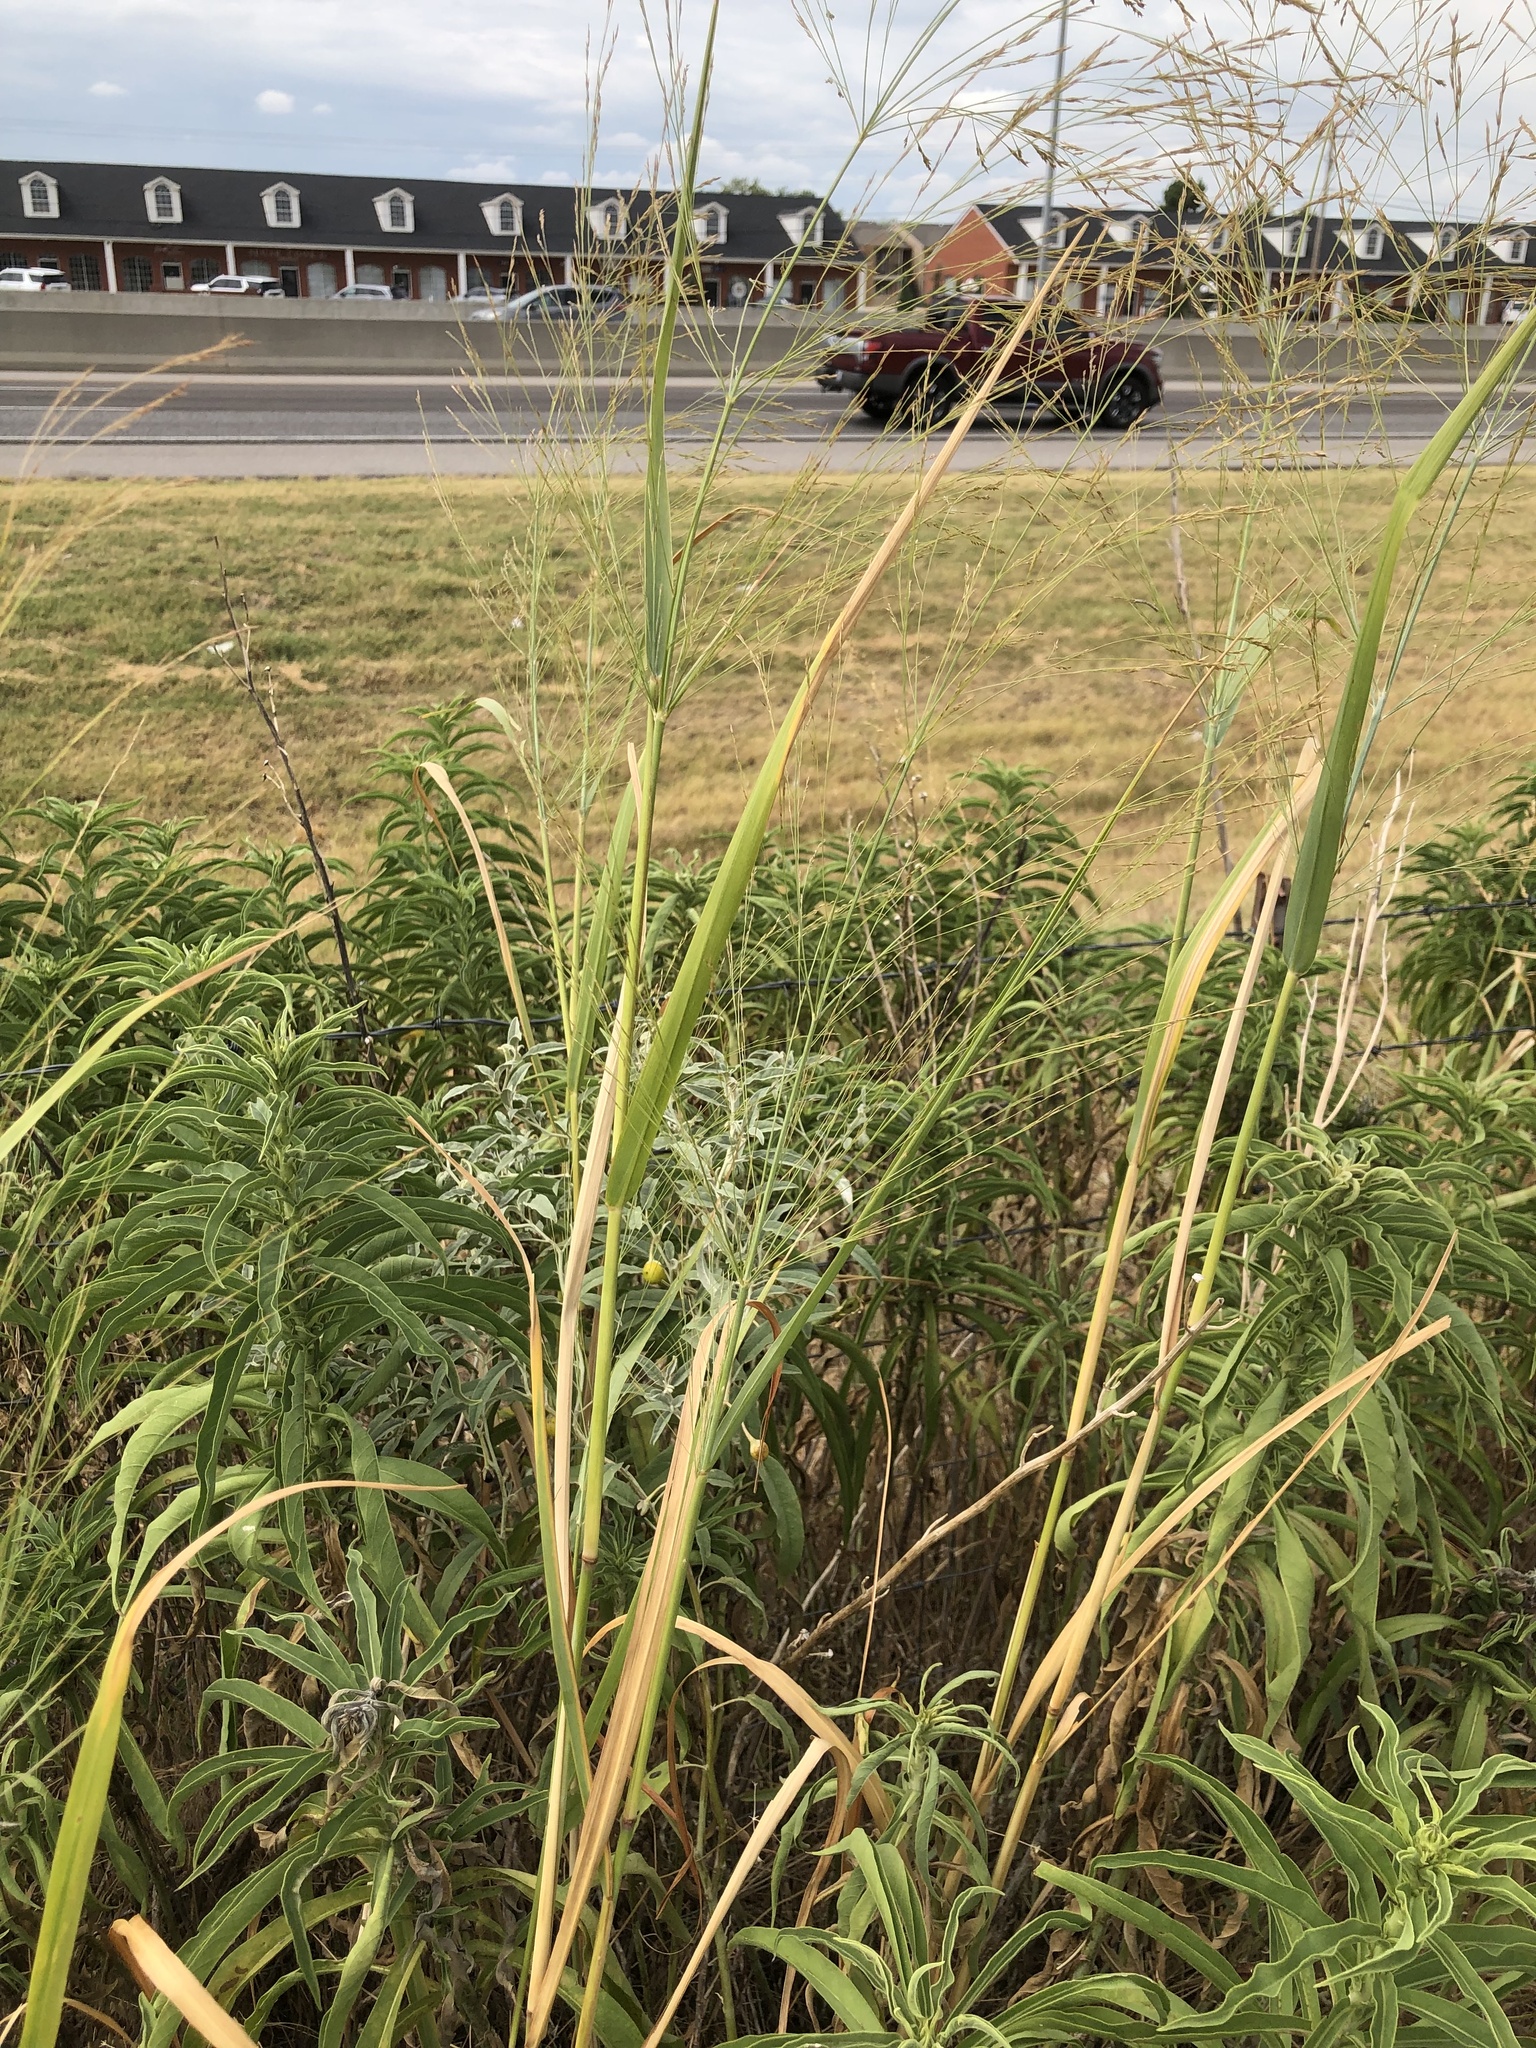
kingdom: Plantae
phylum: Tracheophyta
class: Liliopsida
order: Poales
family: Poaceae
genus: Panicum
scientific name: Panicum virgatum
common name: Switchgrass
